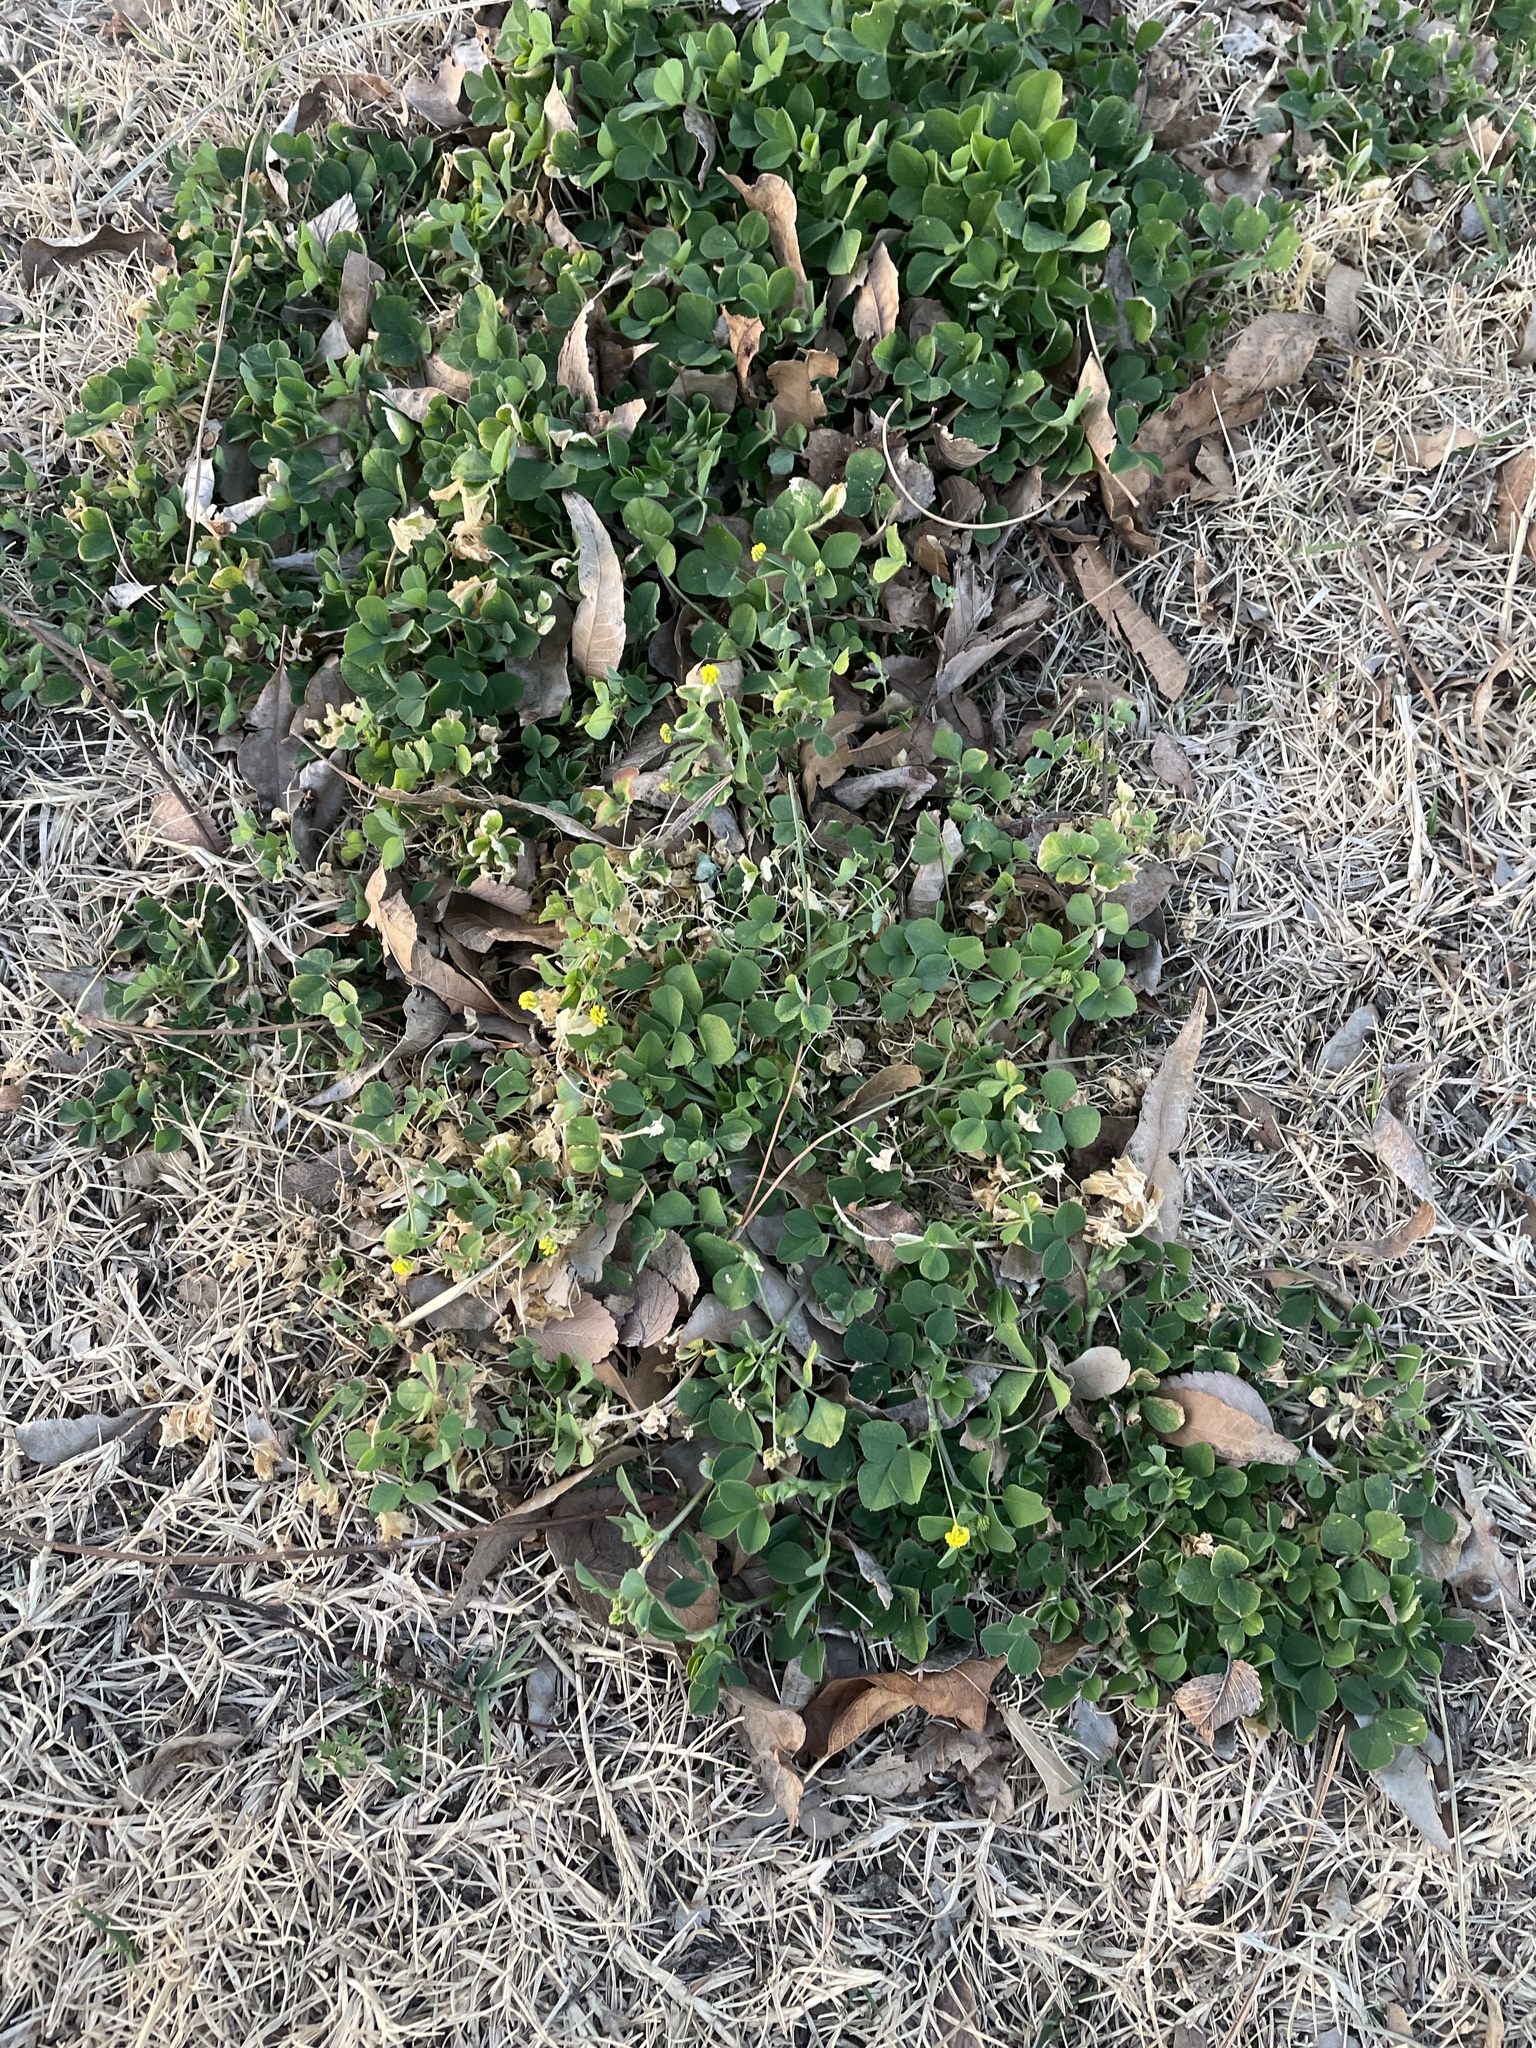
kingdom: Plantae
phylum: Tracheophyta
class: Magnoliopsida
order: Fabales
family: Fabaceae
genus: Medicago
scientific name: Medicago lupulina
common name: Black medick
